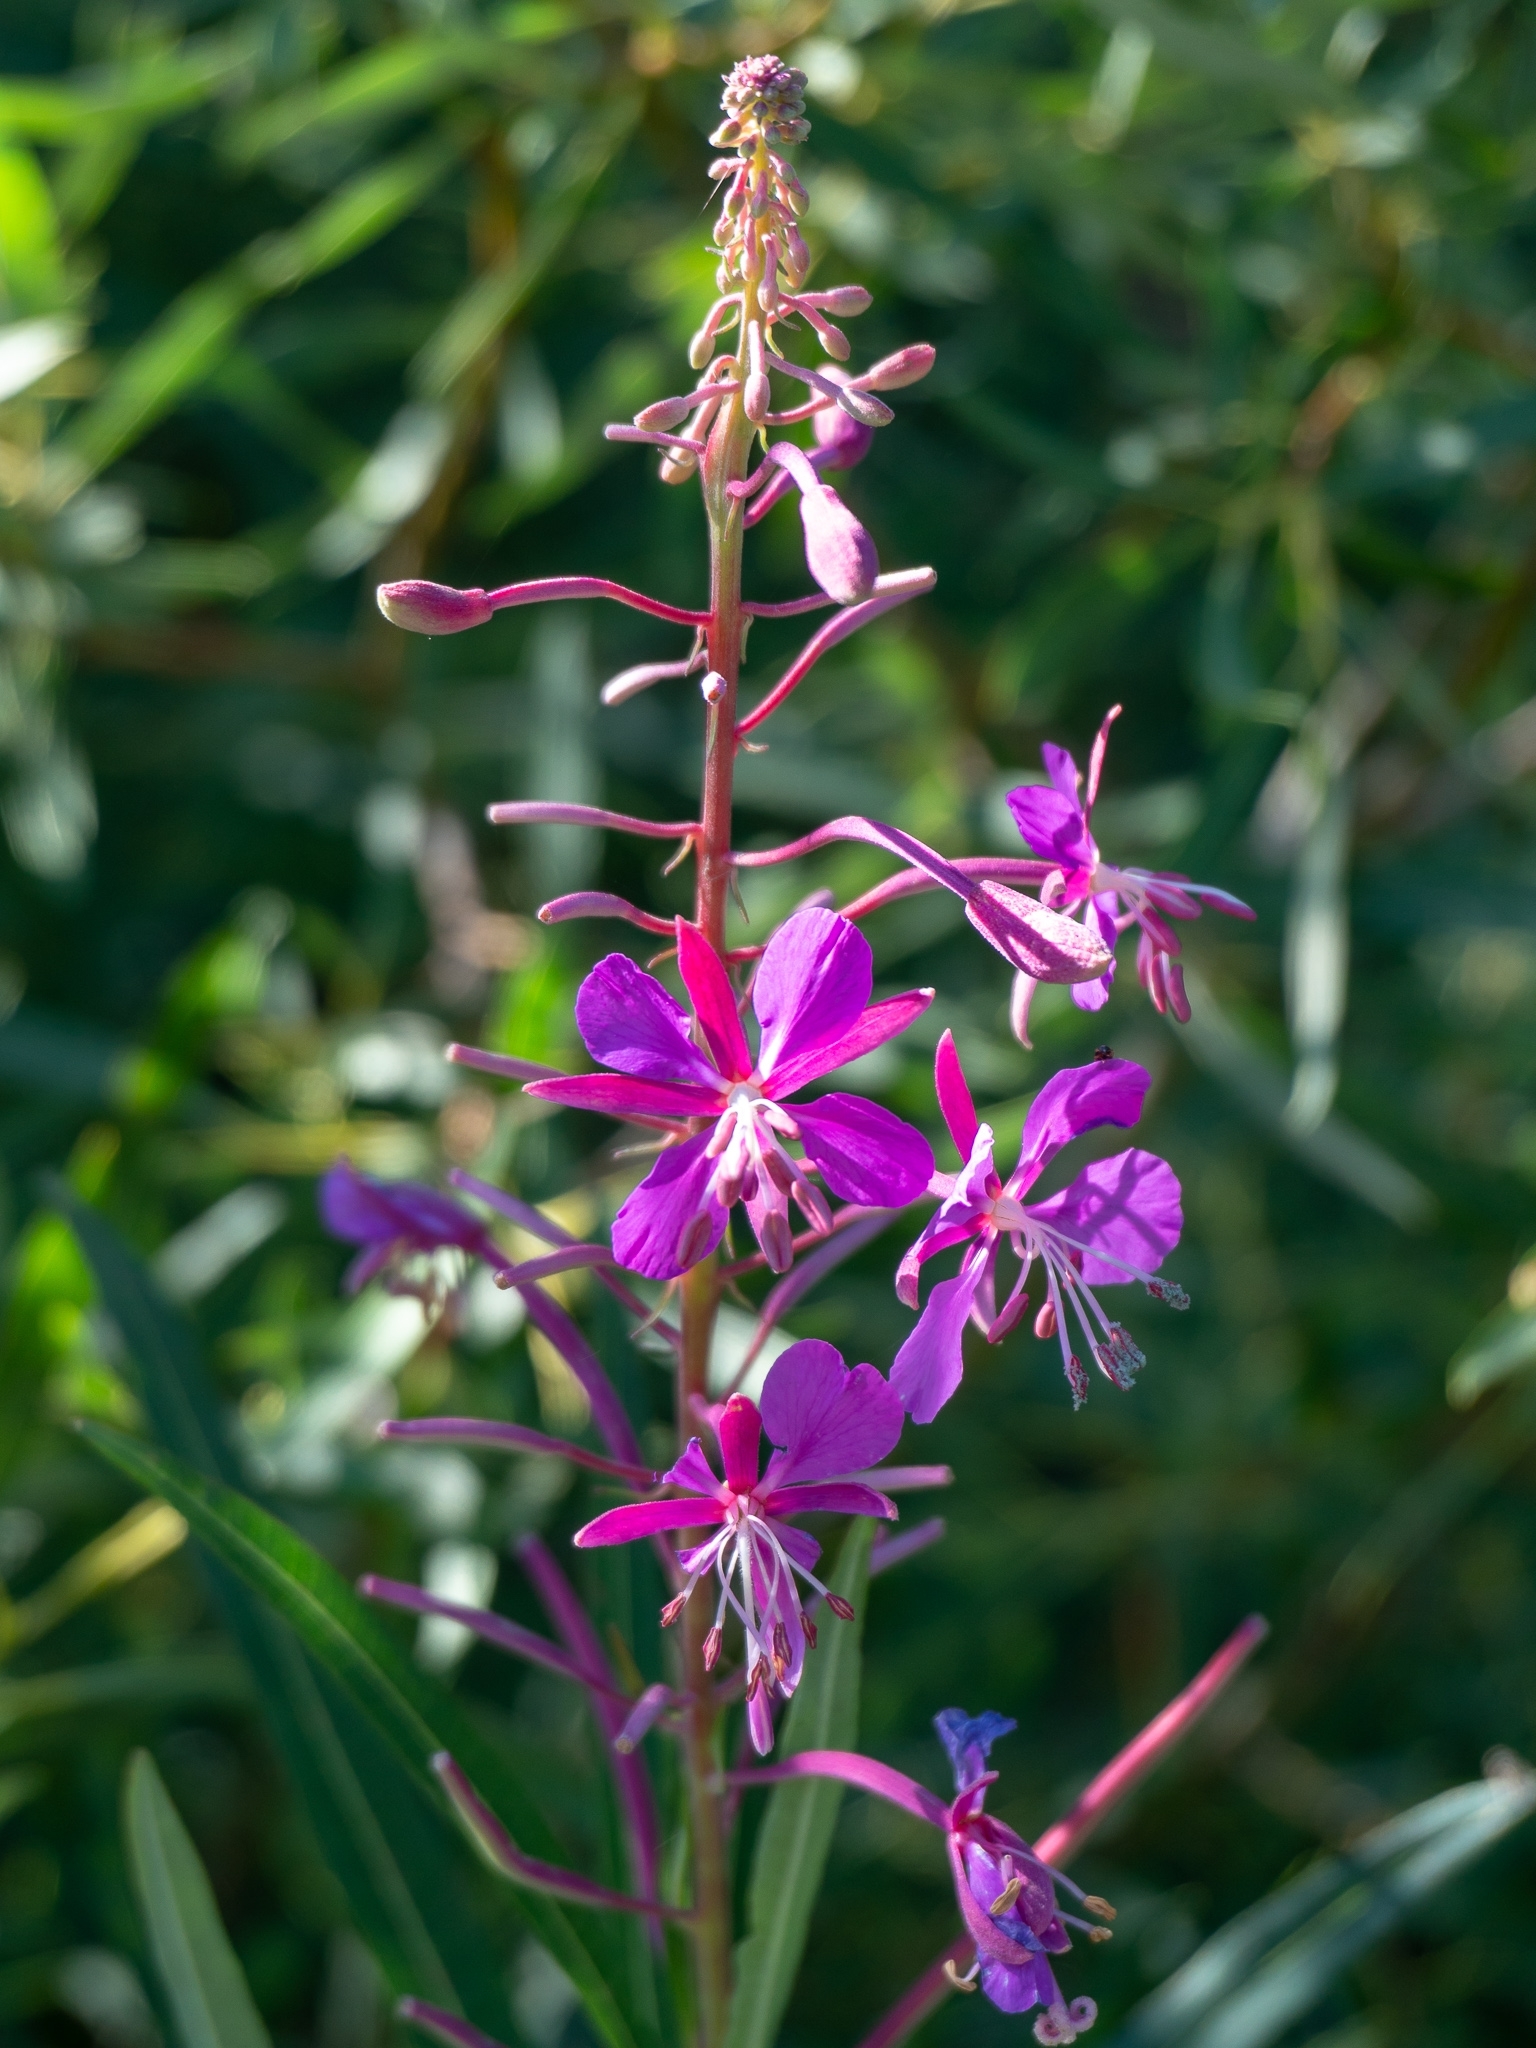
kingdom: Plantae
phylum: Tracheophyta
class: Magnoliopsida
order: Myrtales
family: Onagraceae
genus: Chamaenerion
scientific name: Chamaenerion angustifolium
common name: Fireweed
